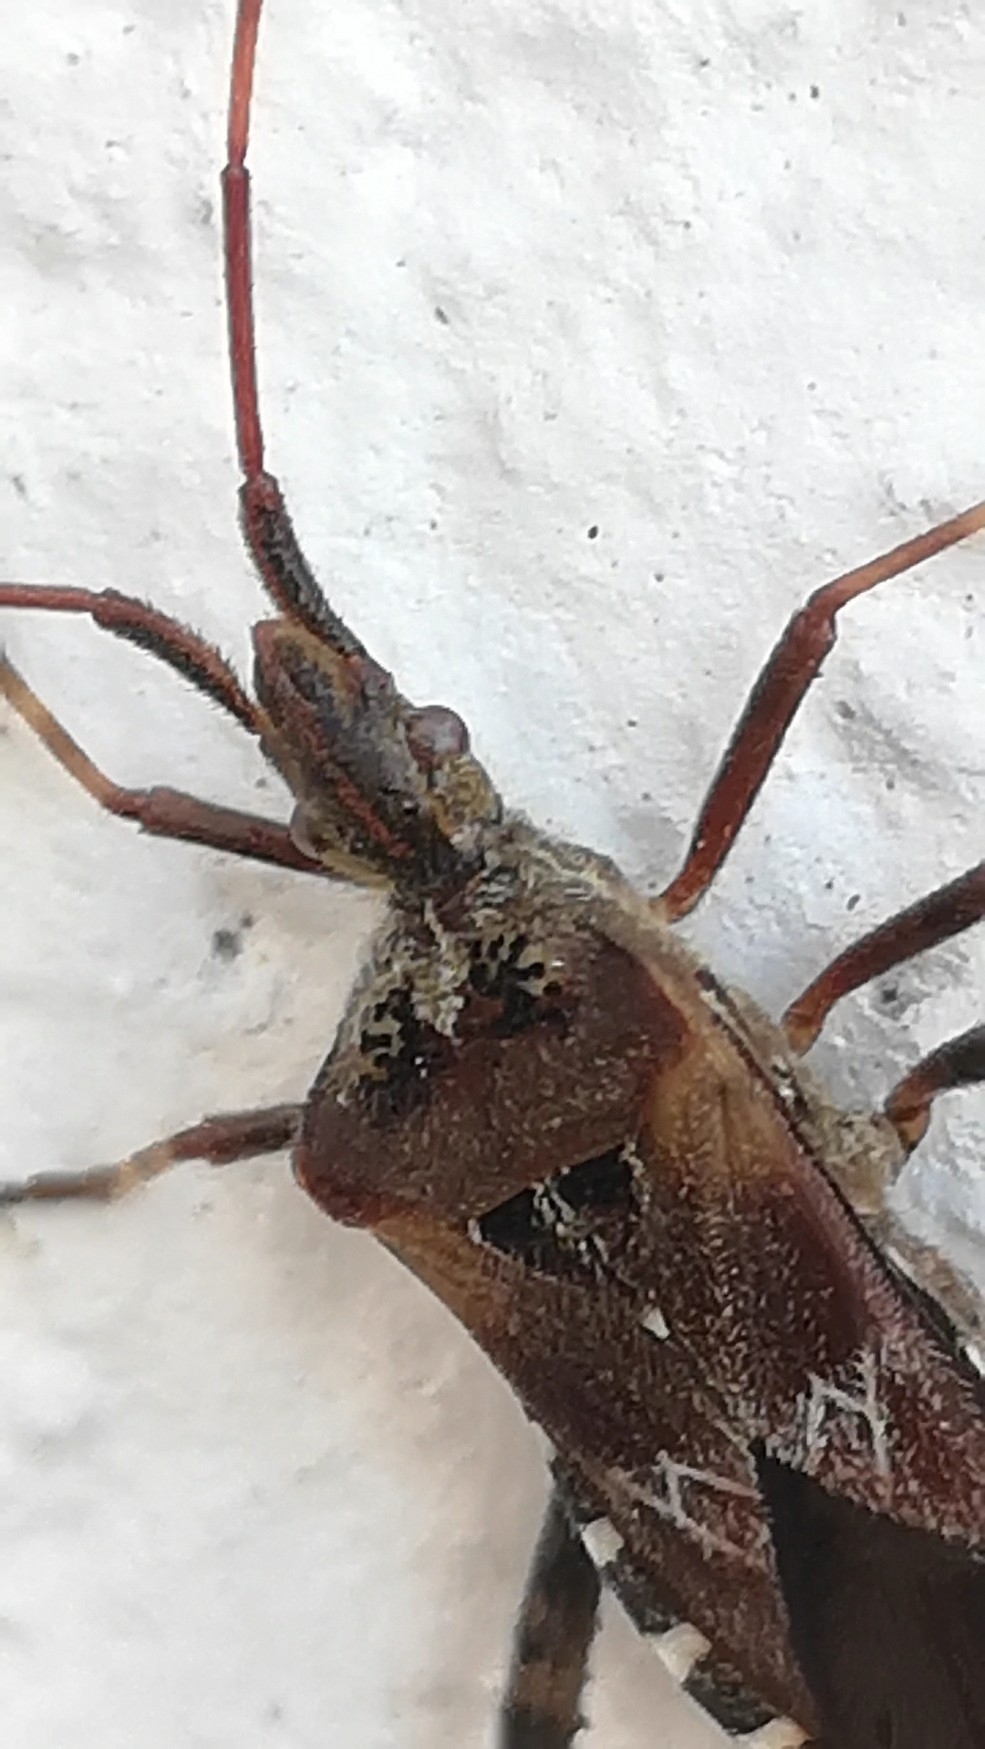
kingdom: Animalia
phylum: Arthropoda
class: Insecta
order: Hemiptera
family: Coreidae
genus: Leptoglossus
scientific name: Leptoglossus occidentalis
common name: Western conifer-seed bug
